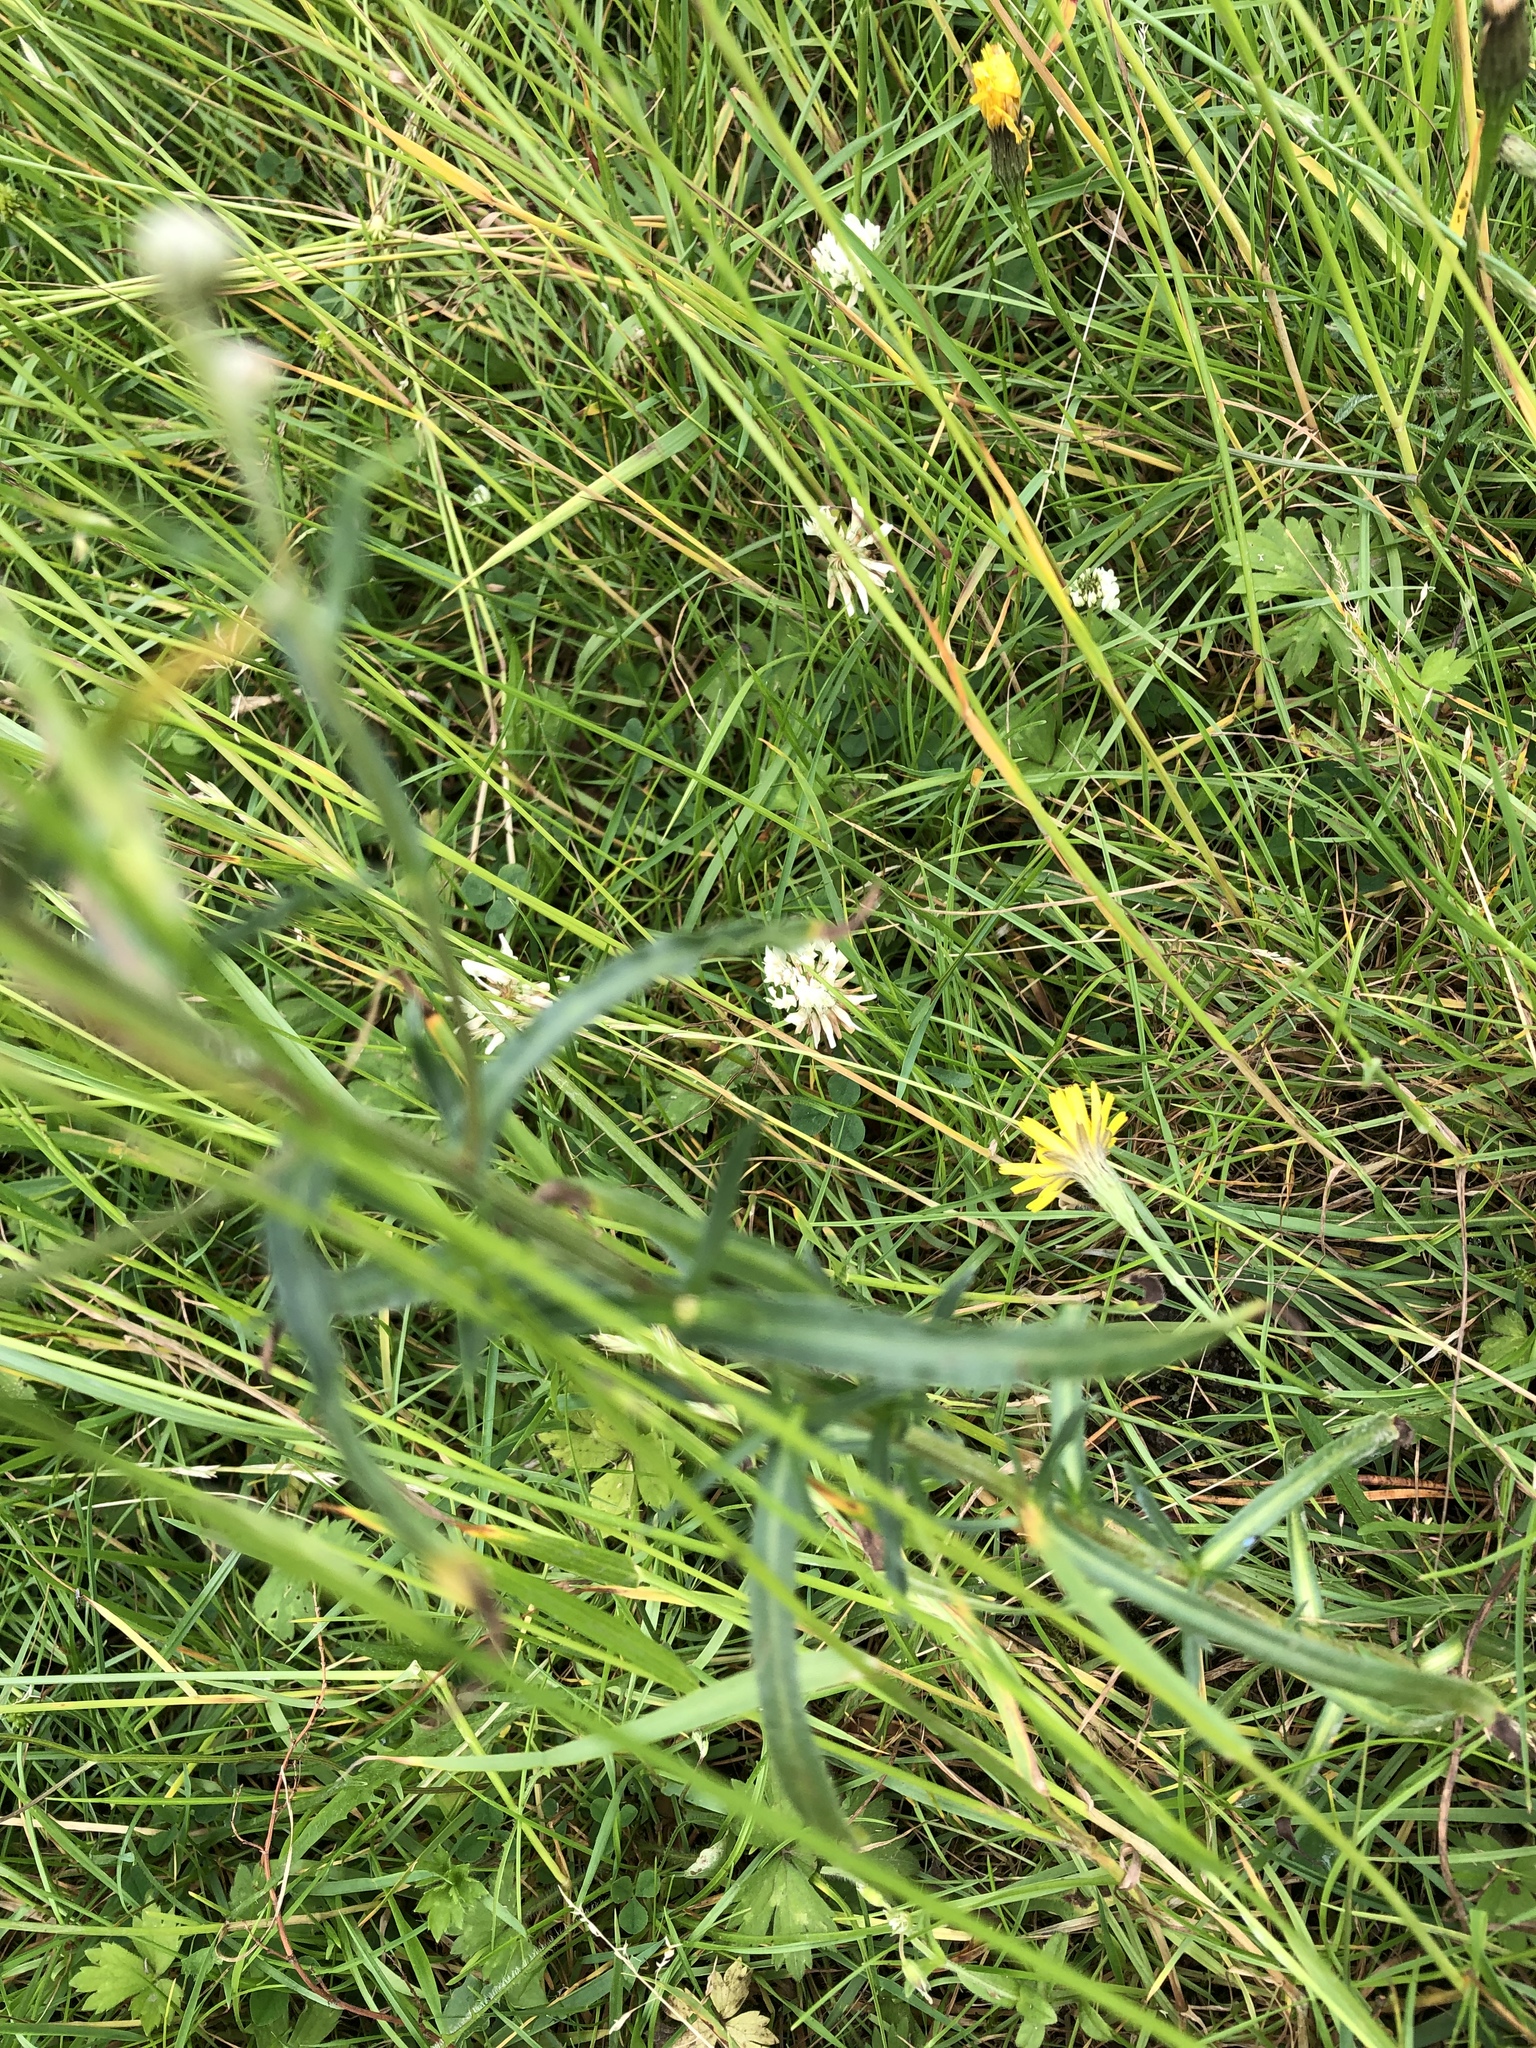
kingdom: Plantae
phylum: Tracheophyta
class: Magnoliopsida
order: Asterales
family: Asteraceae
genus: Achillea
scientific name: Achillea ptarmica
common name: Sneezeweed
